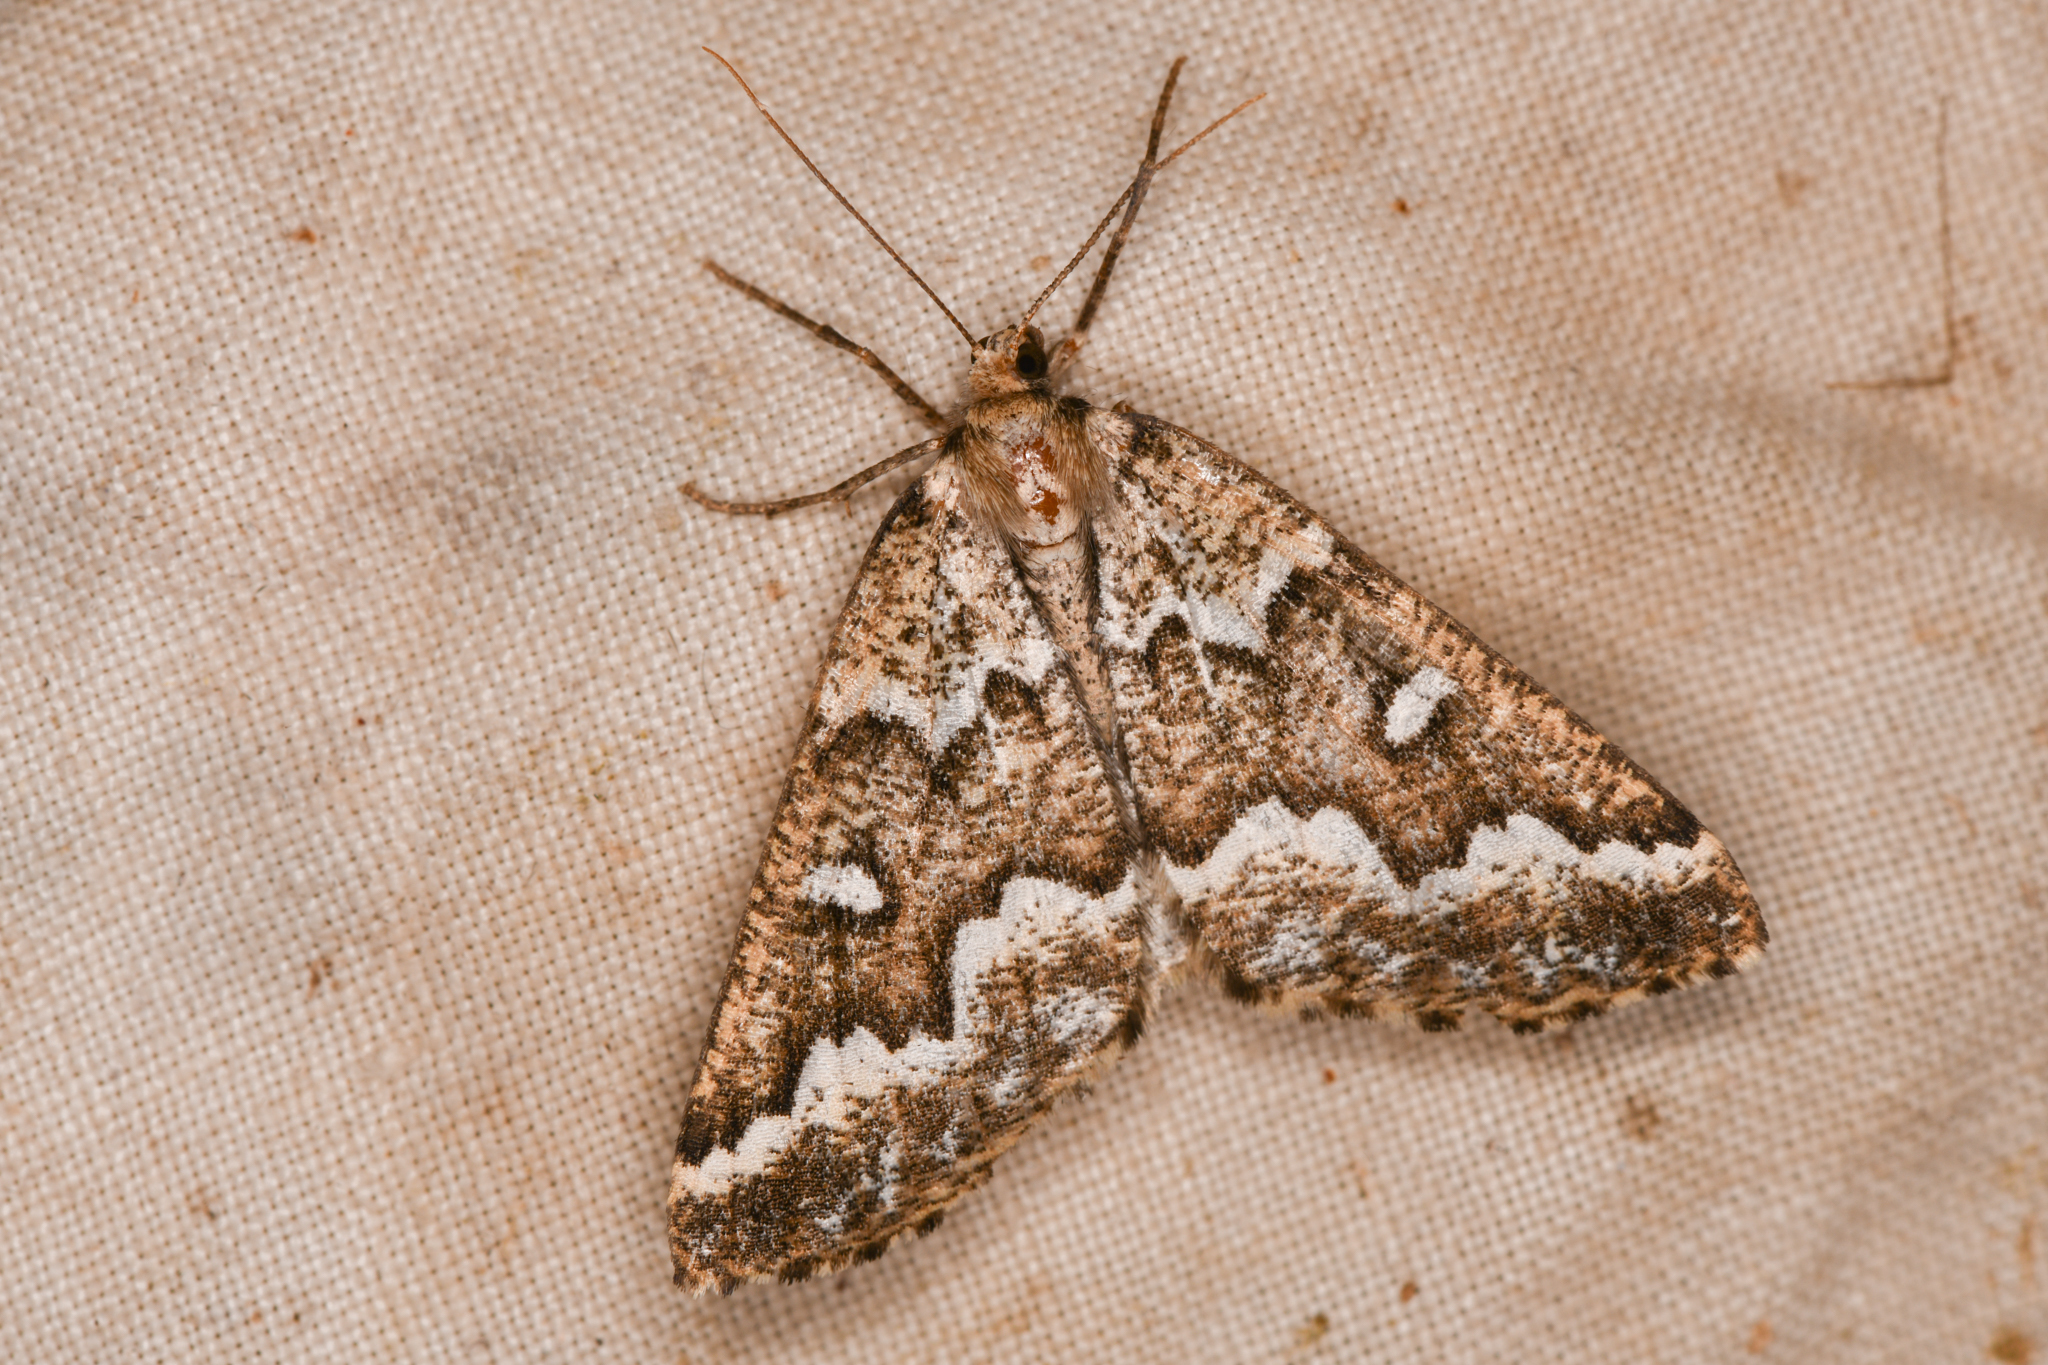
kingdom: Animalia
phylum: Arthropoda
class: Insecta
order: Lepidoptera
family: Geometridae
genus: Caripeta
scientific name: Caripeta divisata
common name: Gray spruce looper
